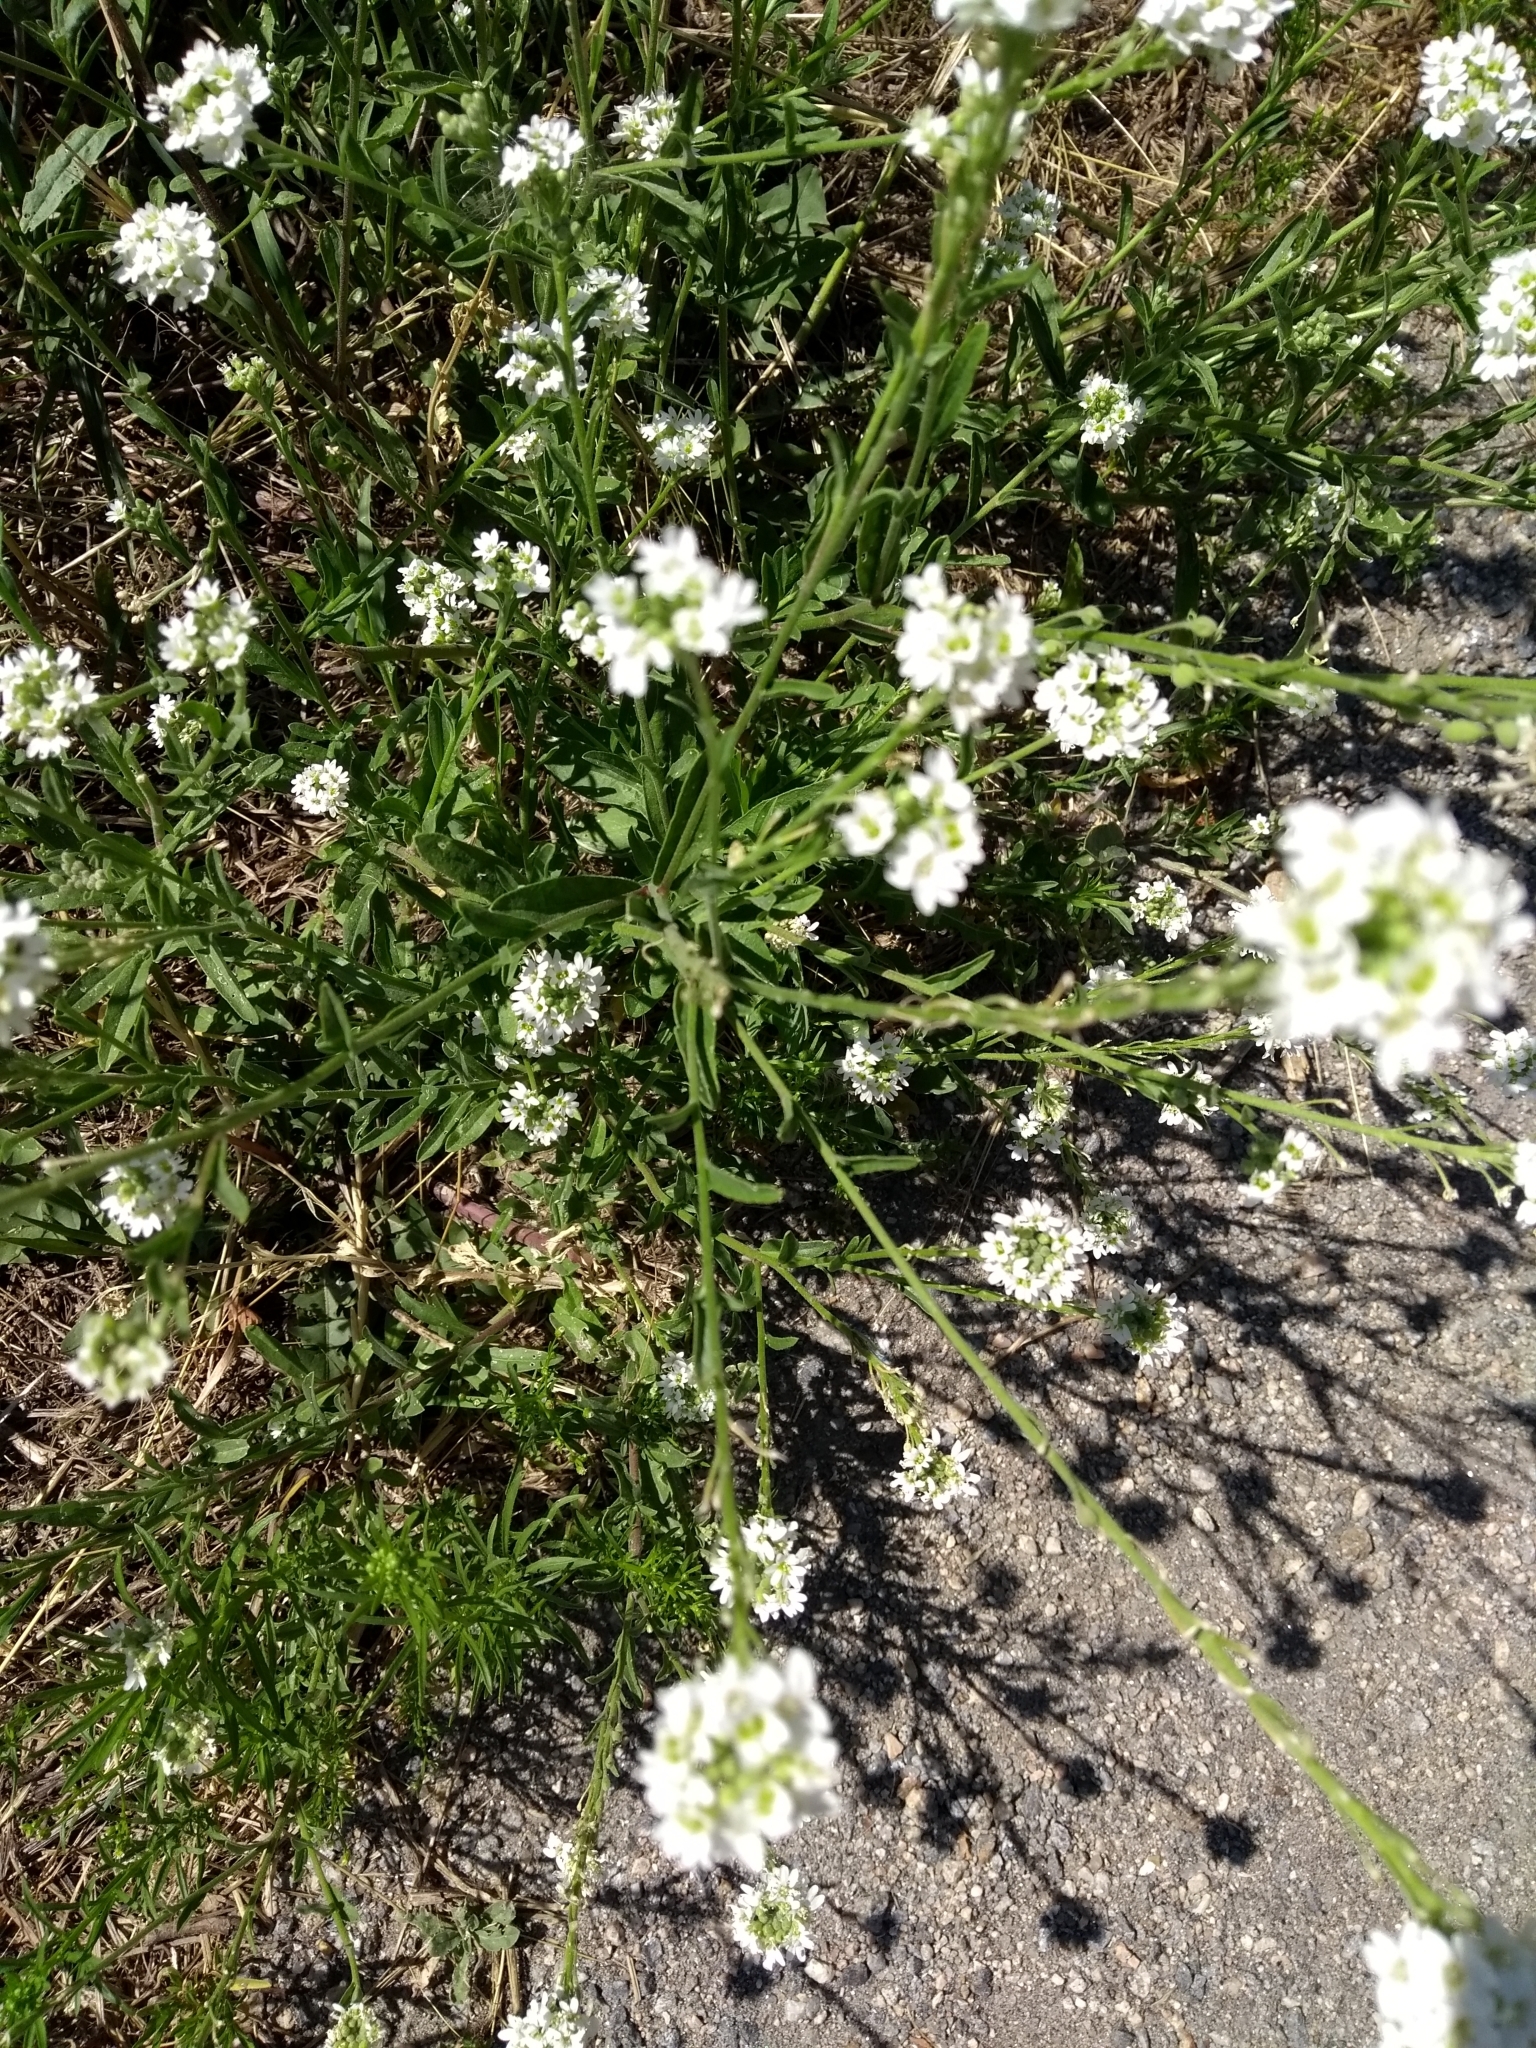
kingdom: Plantae
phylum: Tracheophyta
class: Magnoliopsida
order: Brassicales
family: Brassicaceae
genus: Berteroa
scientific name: Berteroa incana
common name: Hoary alison
